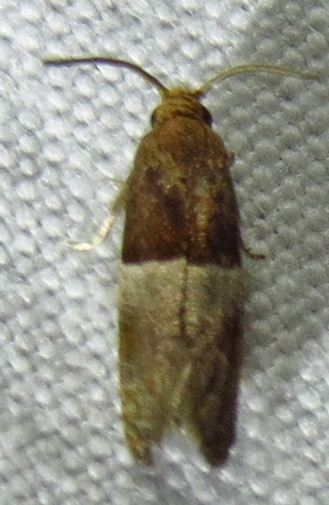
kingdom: Animalia
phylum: Arthropoda
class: Insecta
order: Lepidoptera
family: Tortricidae
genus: Larisa
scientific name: Larisa subsolana
